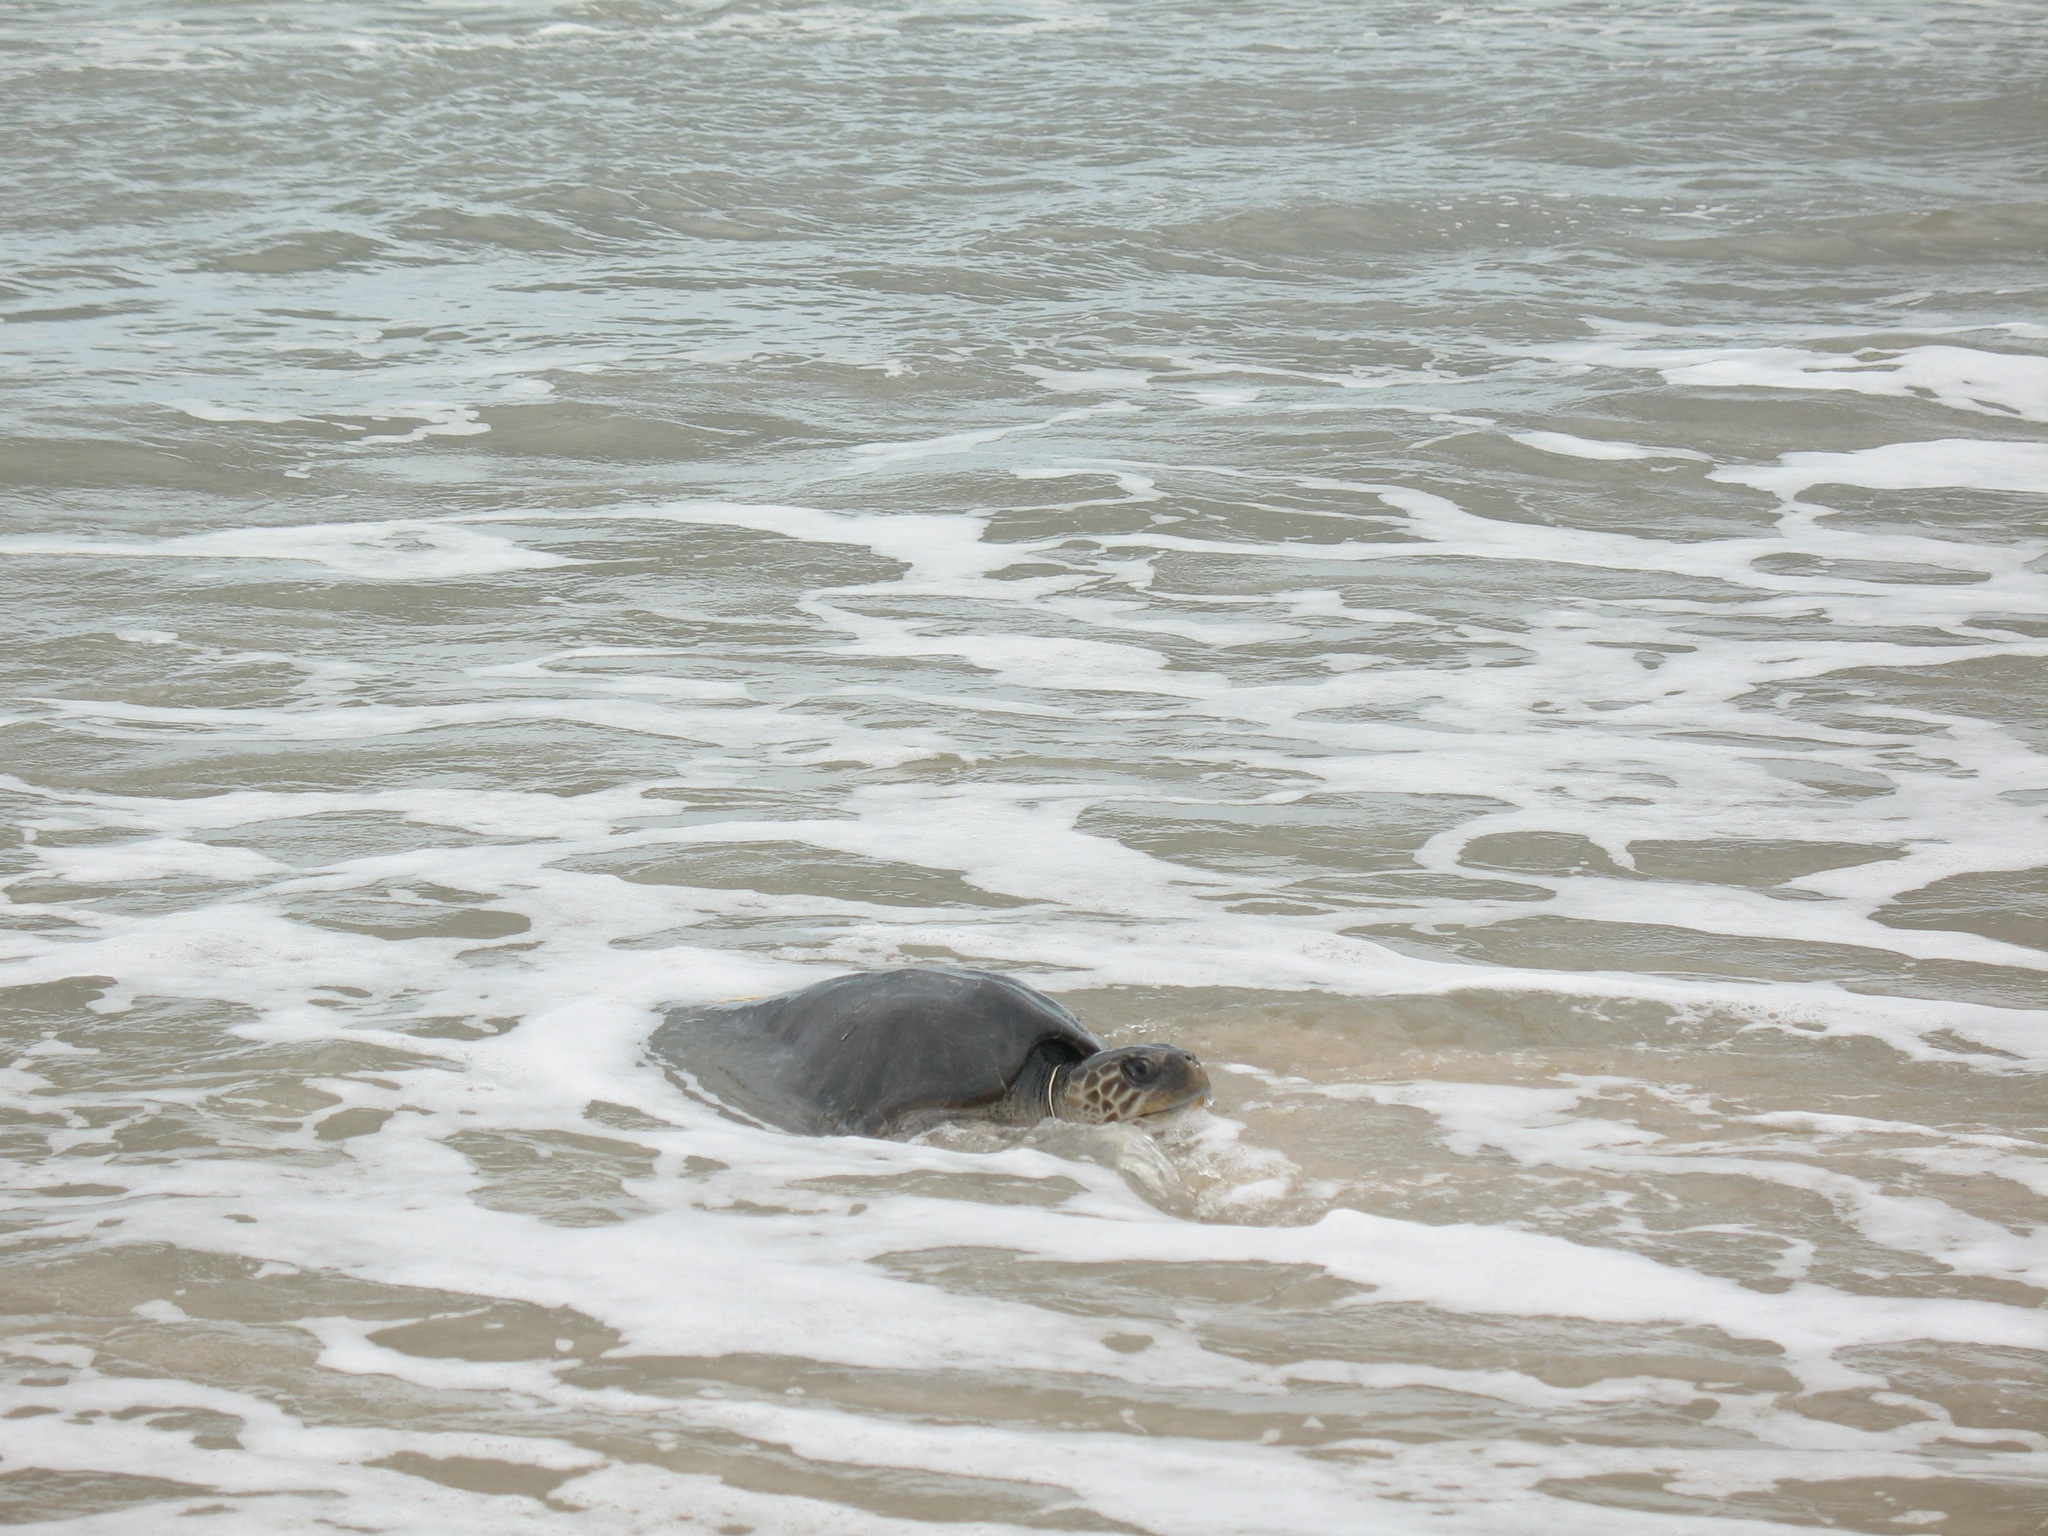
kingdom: Animalia
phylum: Chordata
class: Testudines
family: Cheloniidae
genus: Lepidochelys
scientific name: Lepidochelys olivacea
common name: Olive ridley
